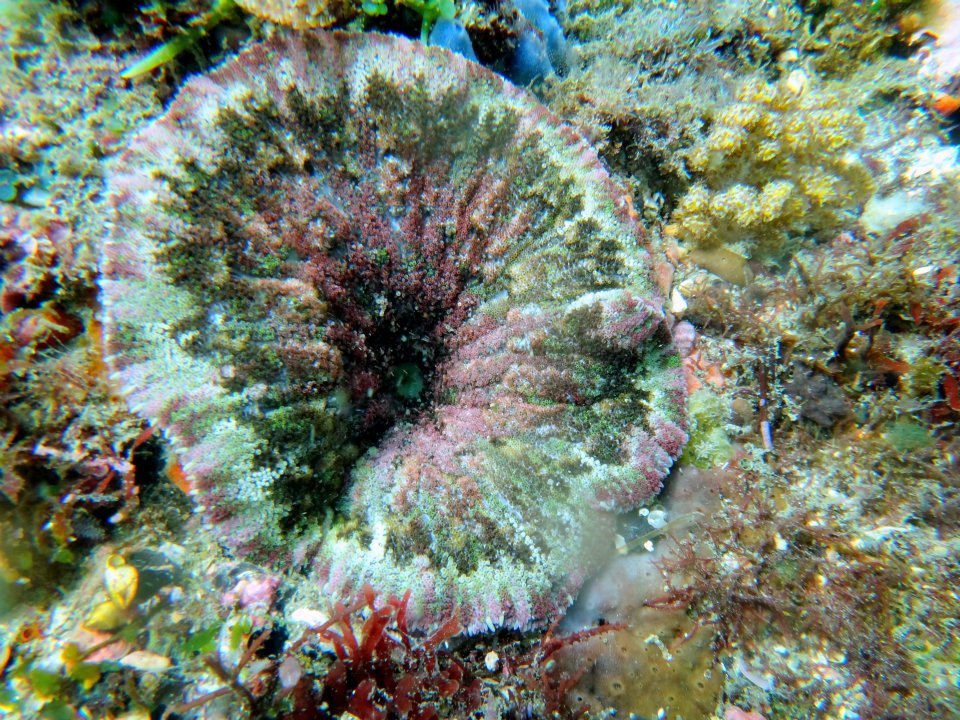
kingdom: Animalia
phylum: Cnidaria
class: Anthozoa
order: Actiniaria
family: Stichodactylidae
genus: Stichodactyla
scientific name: Stichodactyla tapetum
